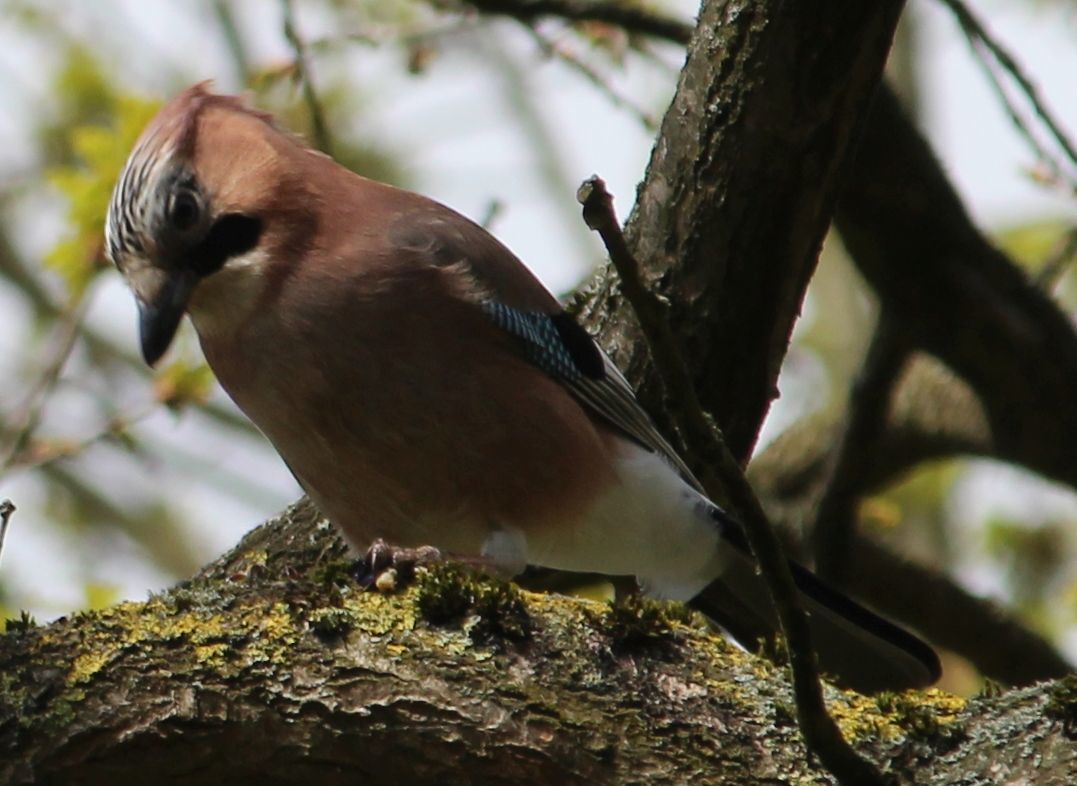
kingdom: Animalia
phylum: Chordata
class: Aves
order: Passeriformes
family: Corvidae
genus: Garrulus
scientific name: Garrulus glandarius
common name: Eurasian jay
